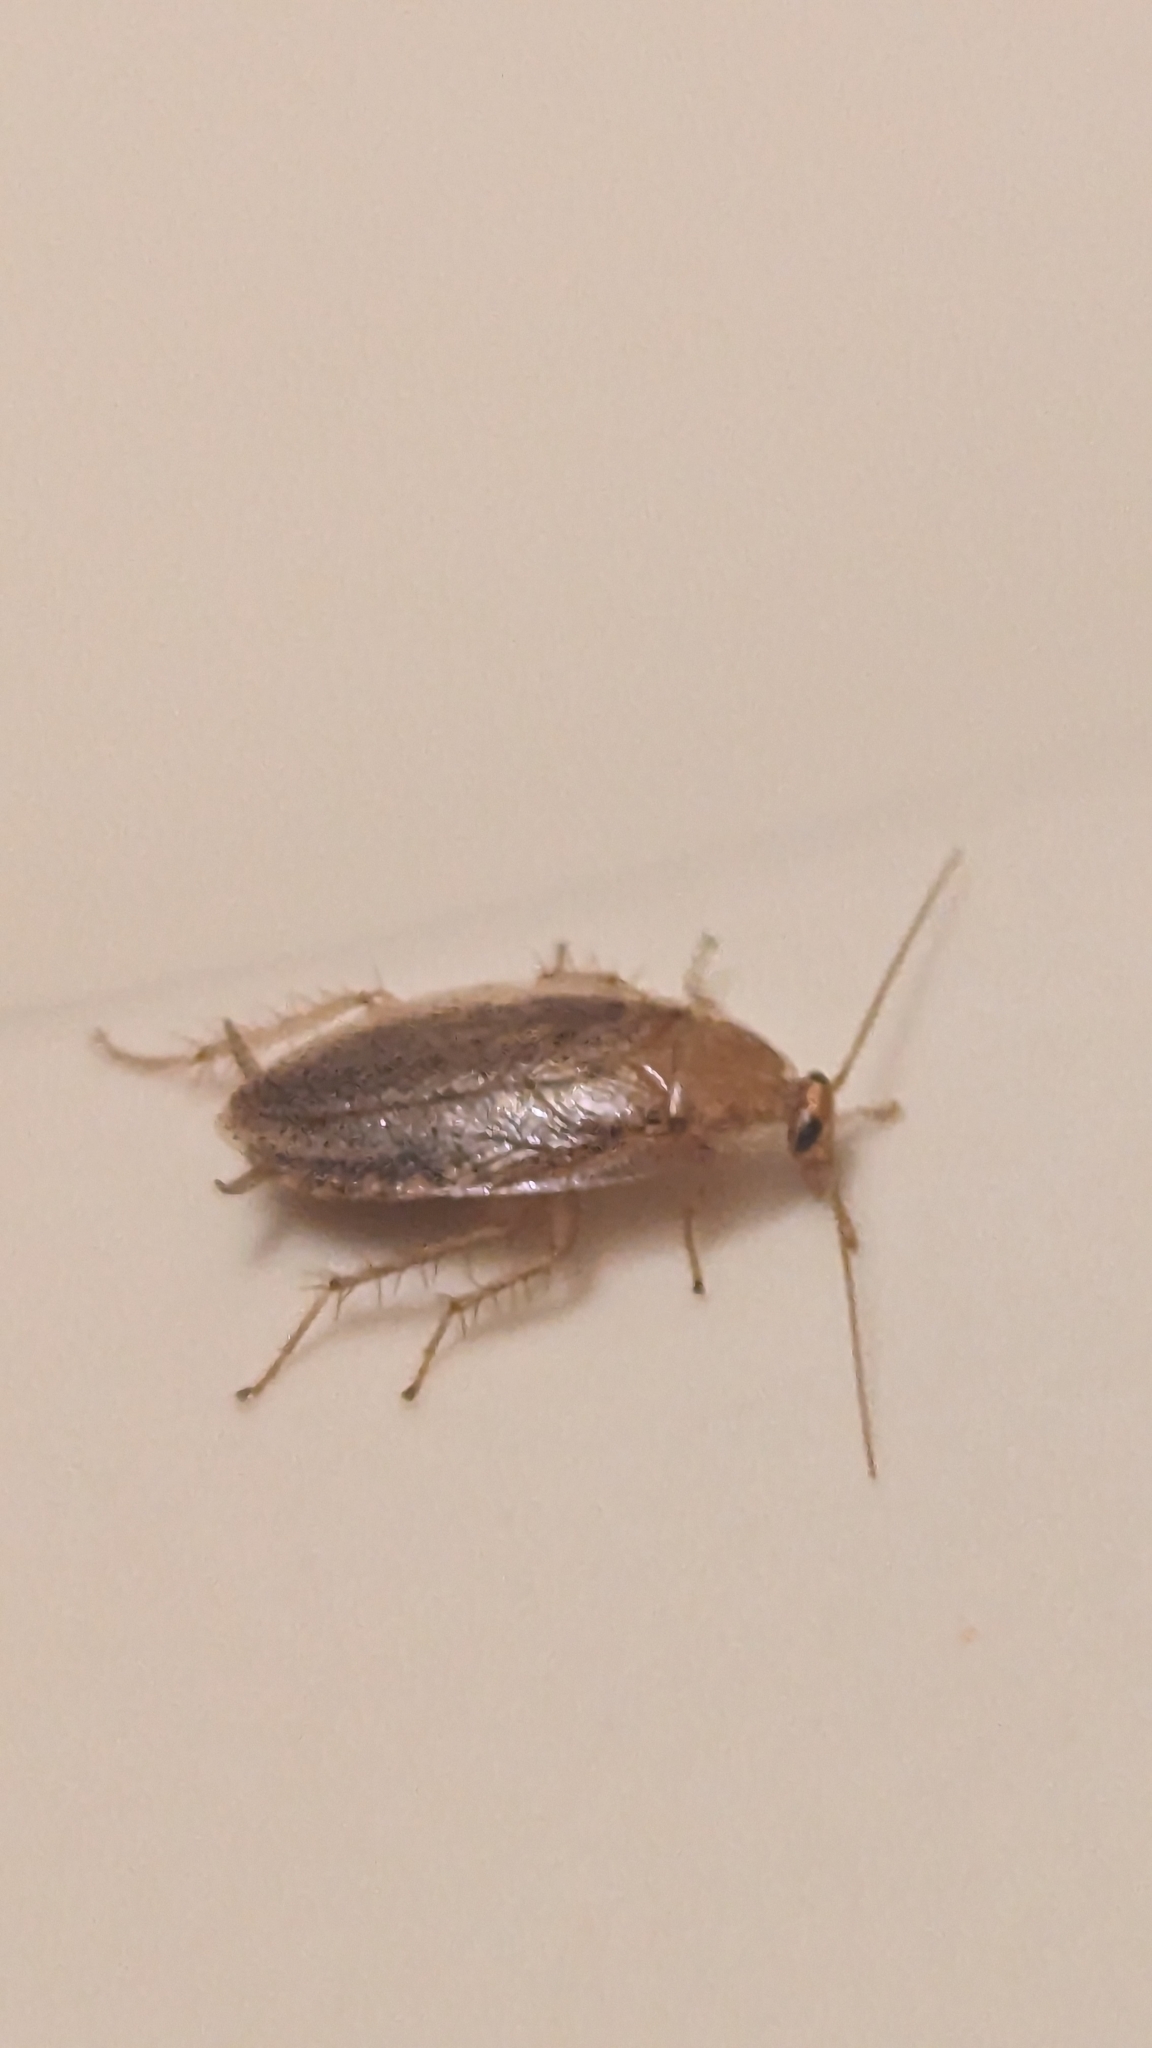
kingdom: Animalia
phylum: Arthropoda
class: Insecta
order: Blattodea
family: Ectobiidae
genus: Ectobius
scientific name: Ectobius pallidus
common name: Tawny cockroach
